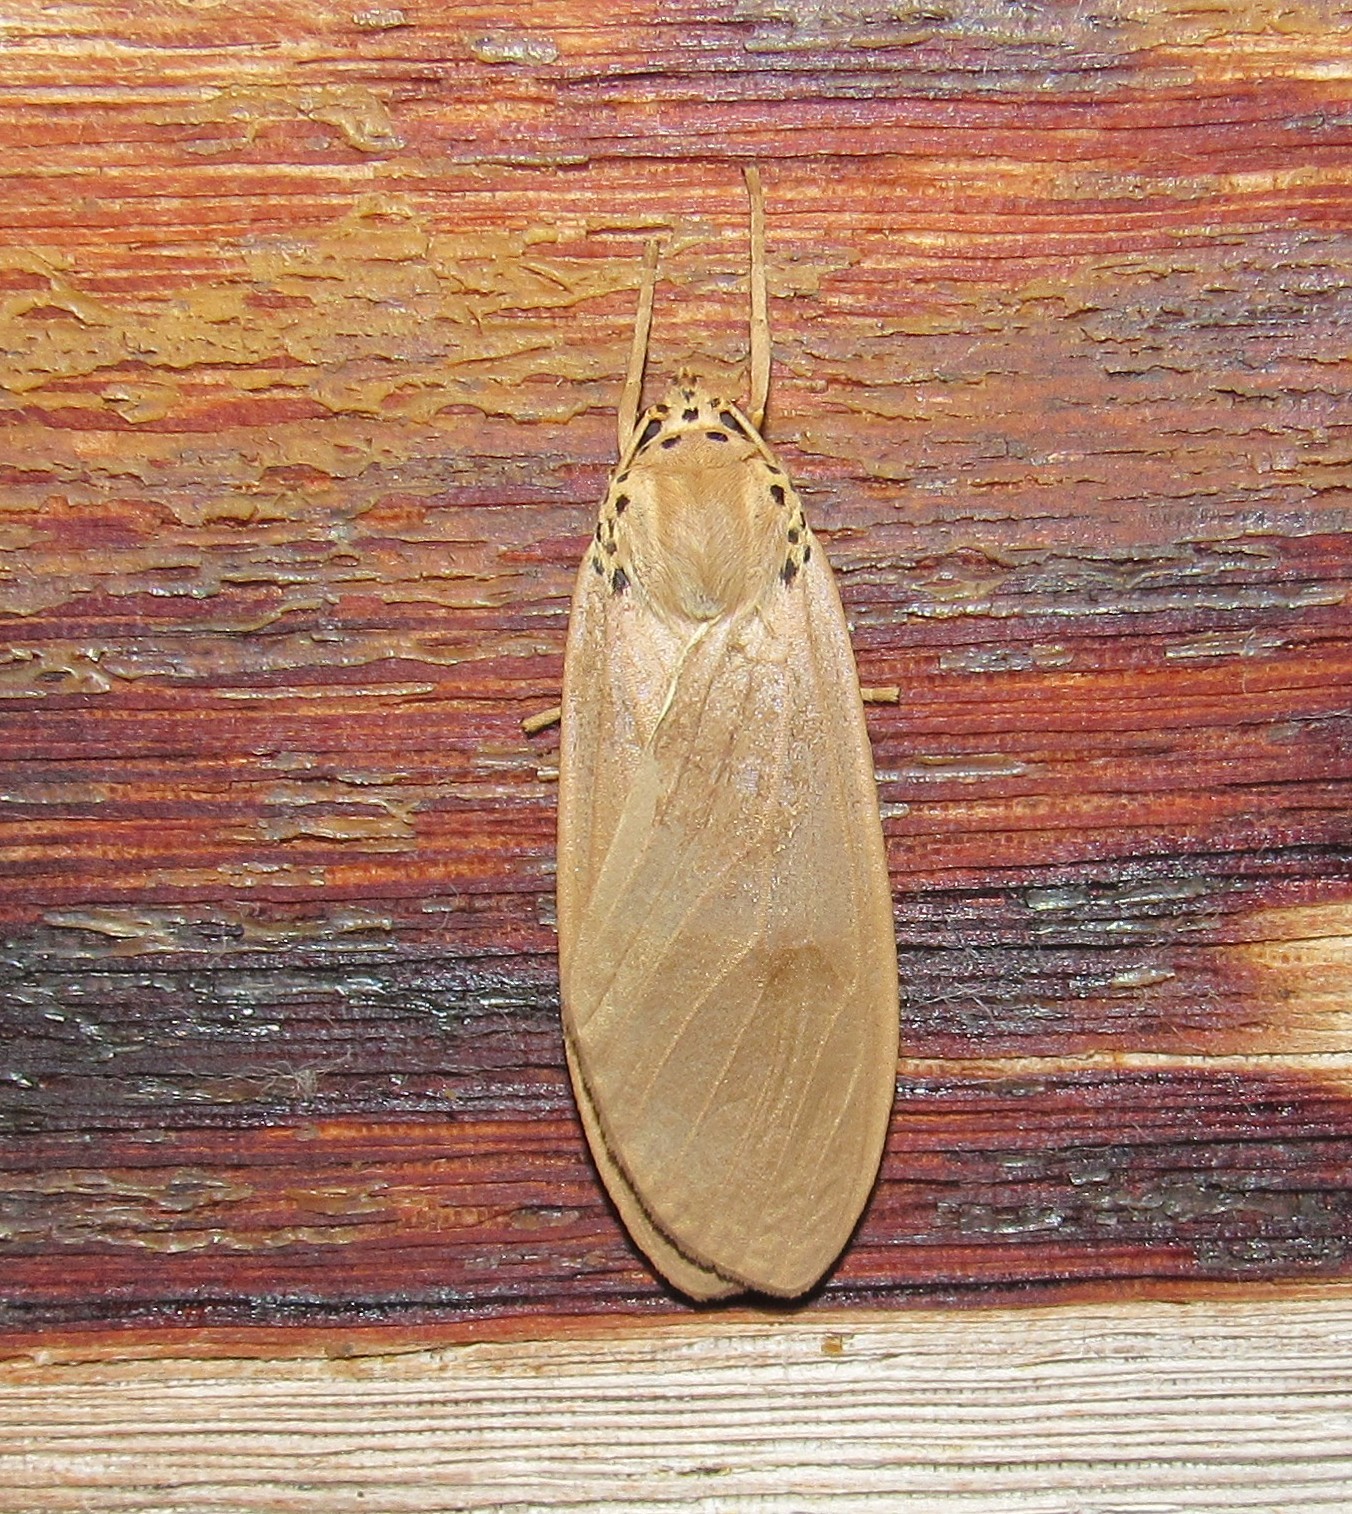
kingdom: Animalia
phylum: Arthropoda
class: Insecta
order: Lepidoptera
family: Erebidae
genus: Pelochyta
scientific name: Pelochyta cinerea
